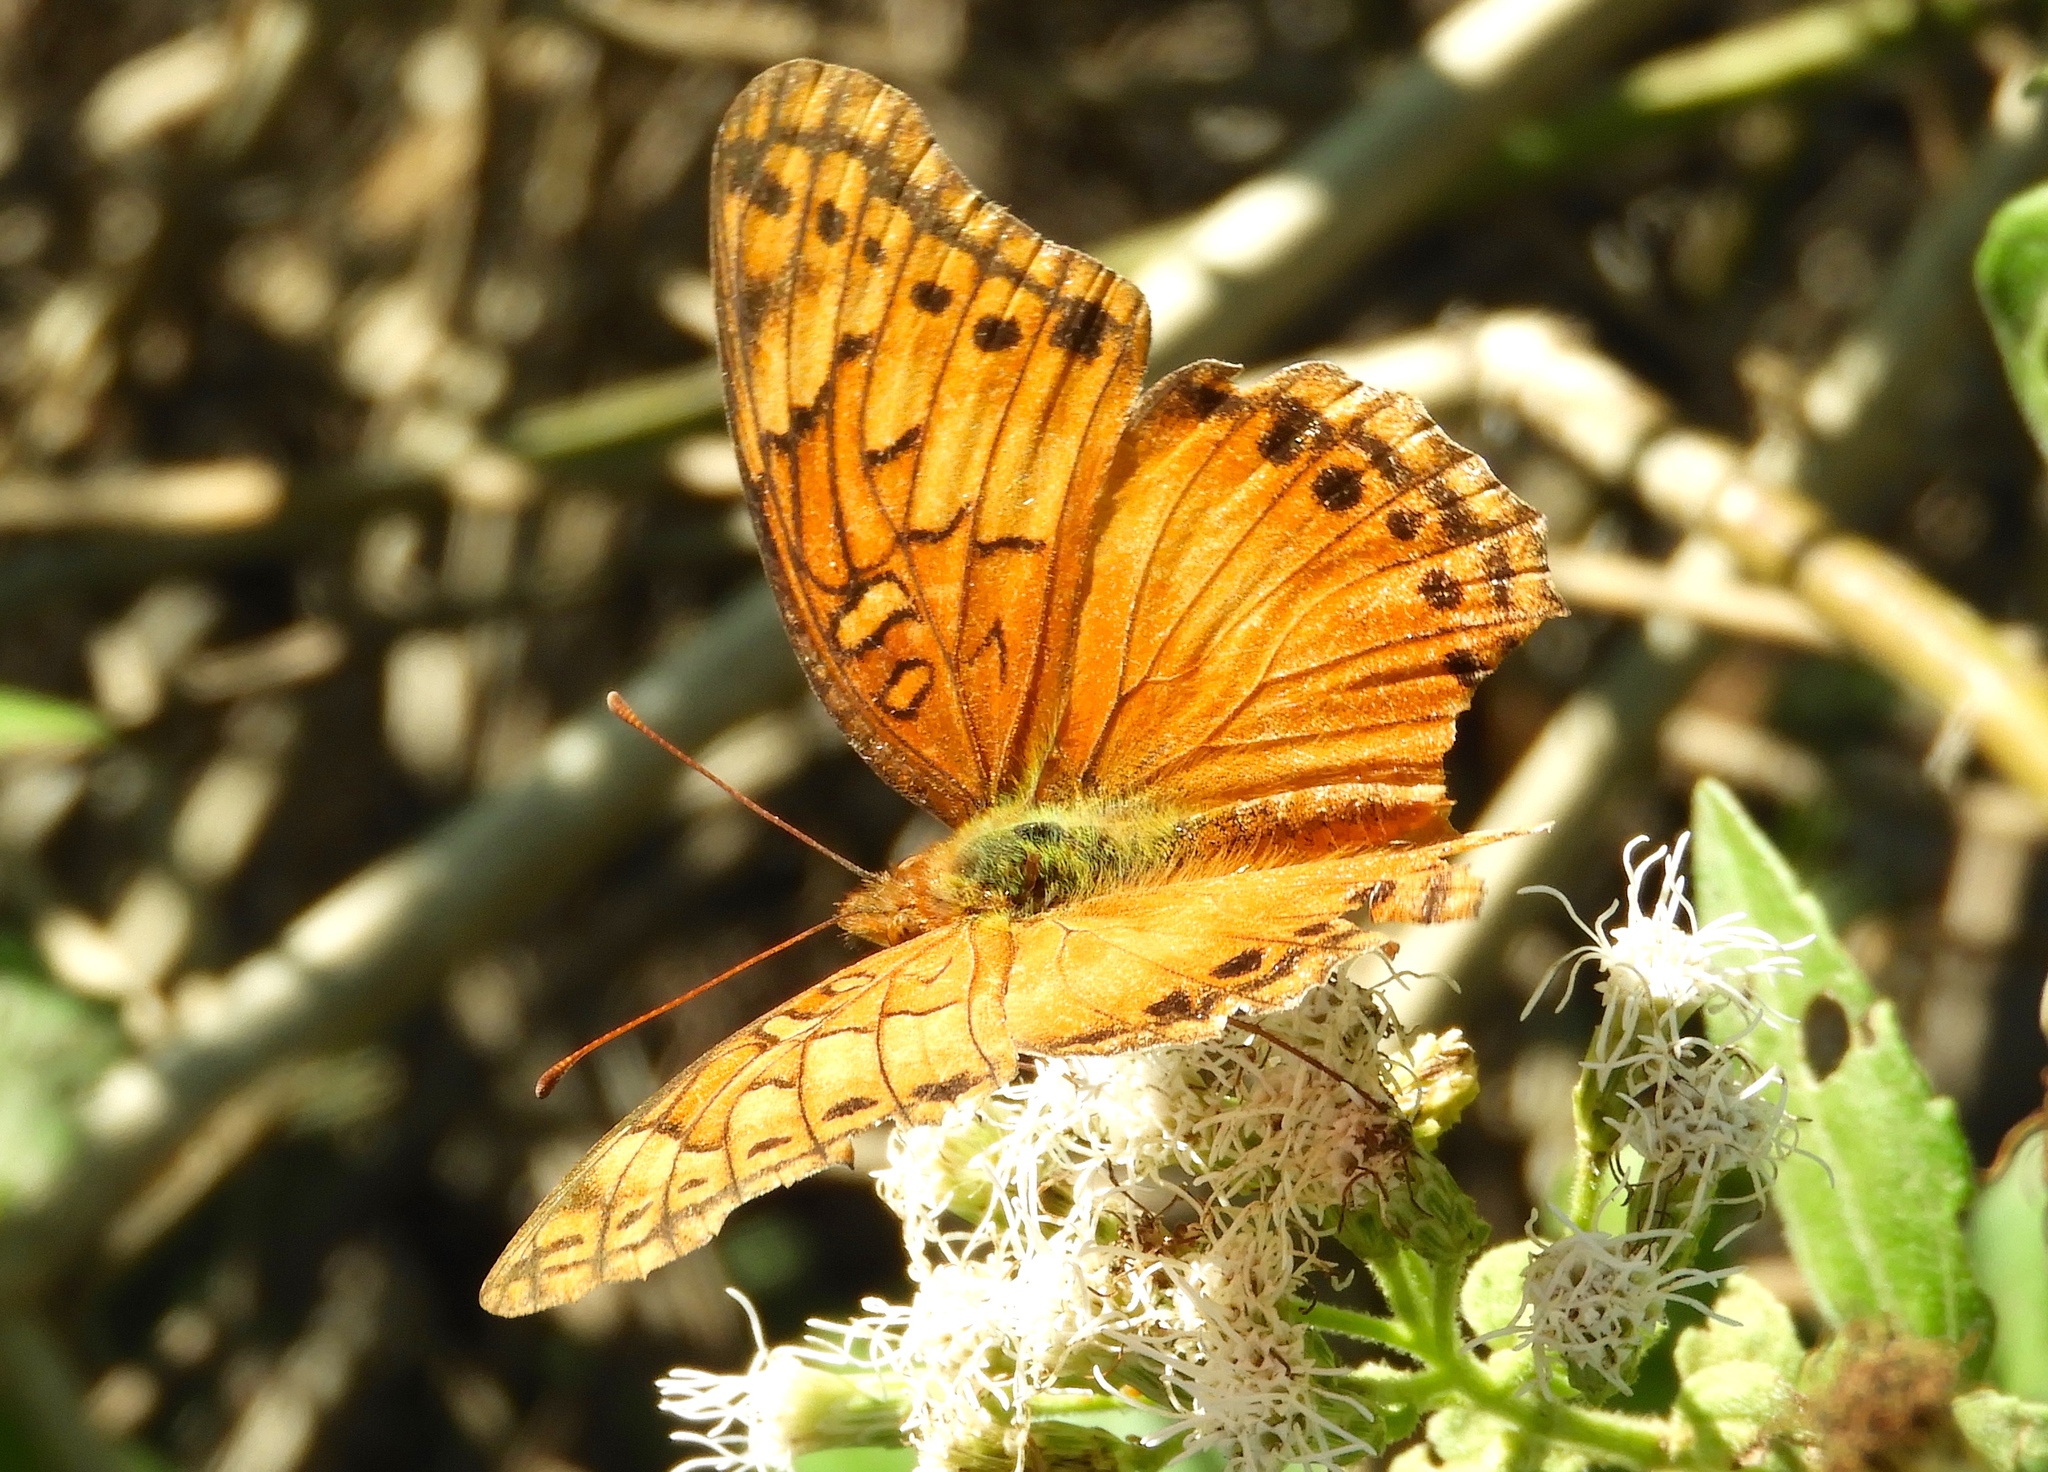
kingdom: Animalia
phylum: Arthropoda
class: Insecta
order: Lepidoptera
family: Nymphalidae
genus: Euptoieta
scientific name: Euptoieta hegesia
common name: Mexican fritillary
